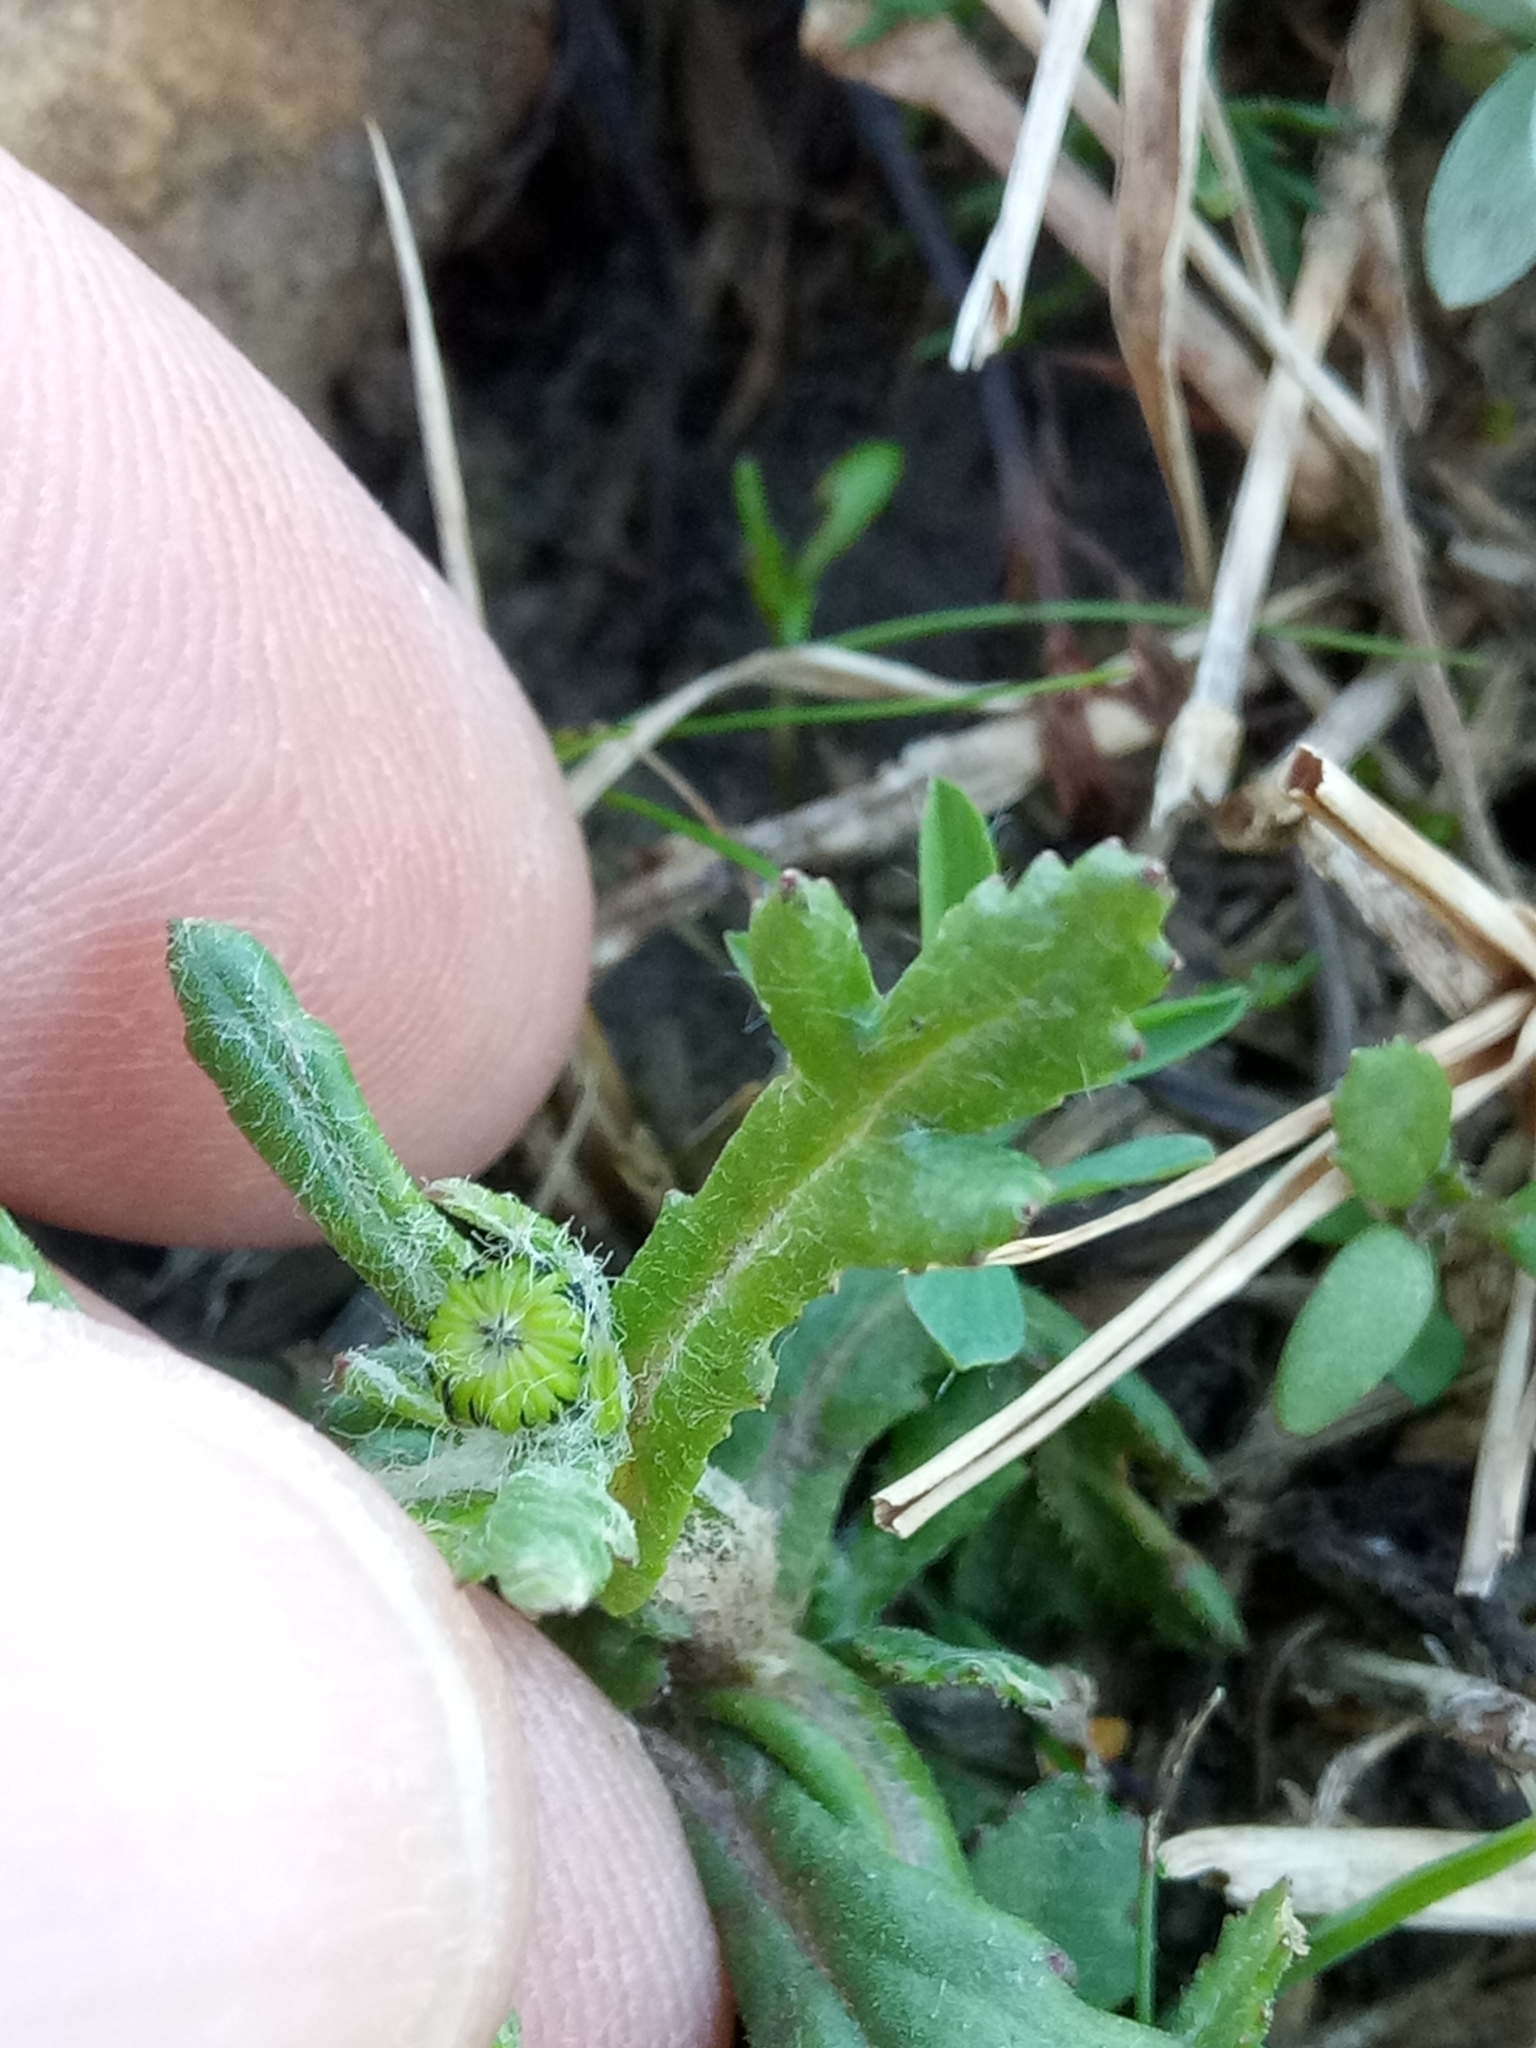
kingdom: Plantae
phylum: Tracheophyta
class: Magnoliopsida
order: Asterales
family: Asteraceae
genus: Senecio
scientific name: Senecio leucanthemifolius
